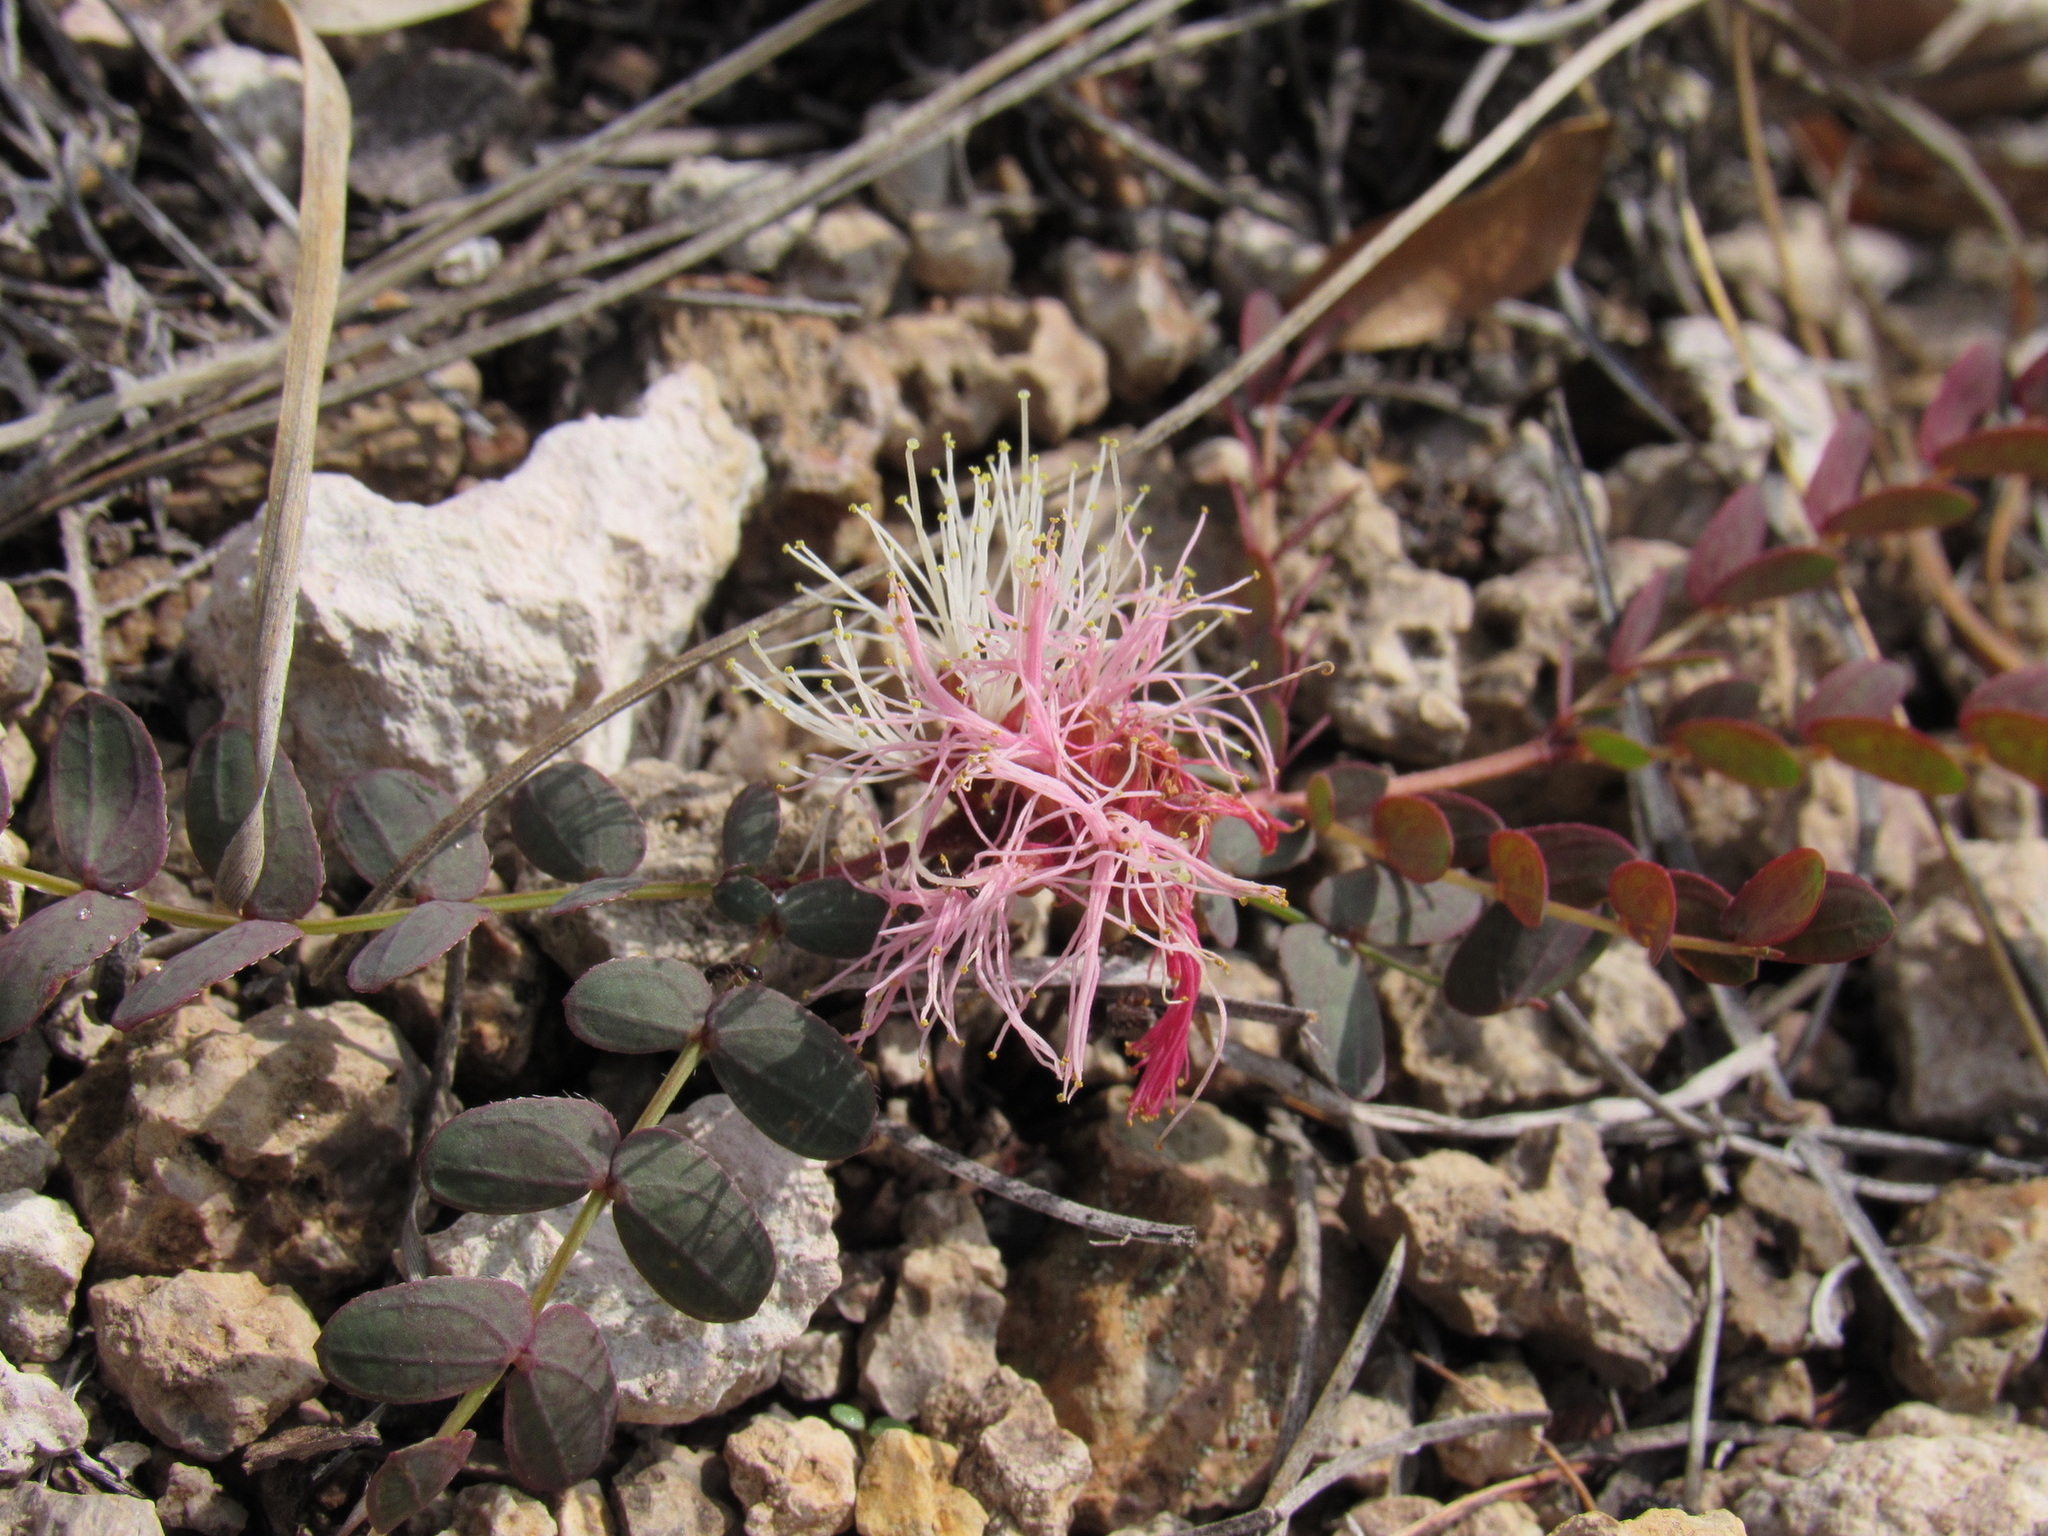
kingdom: Plantae
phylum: Tracheophyta
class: Magnoliopsida
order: Fabales
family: Fabaceae
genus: Calliandra
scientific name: Calliandra humilis
